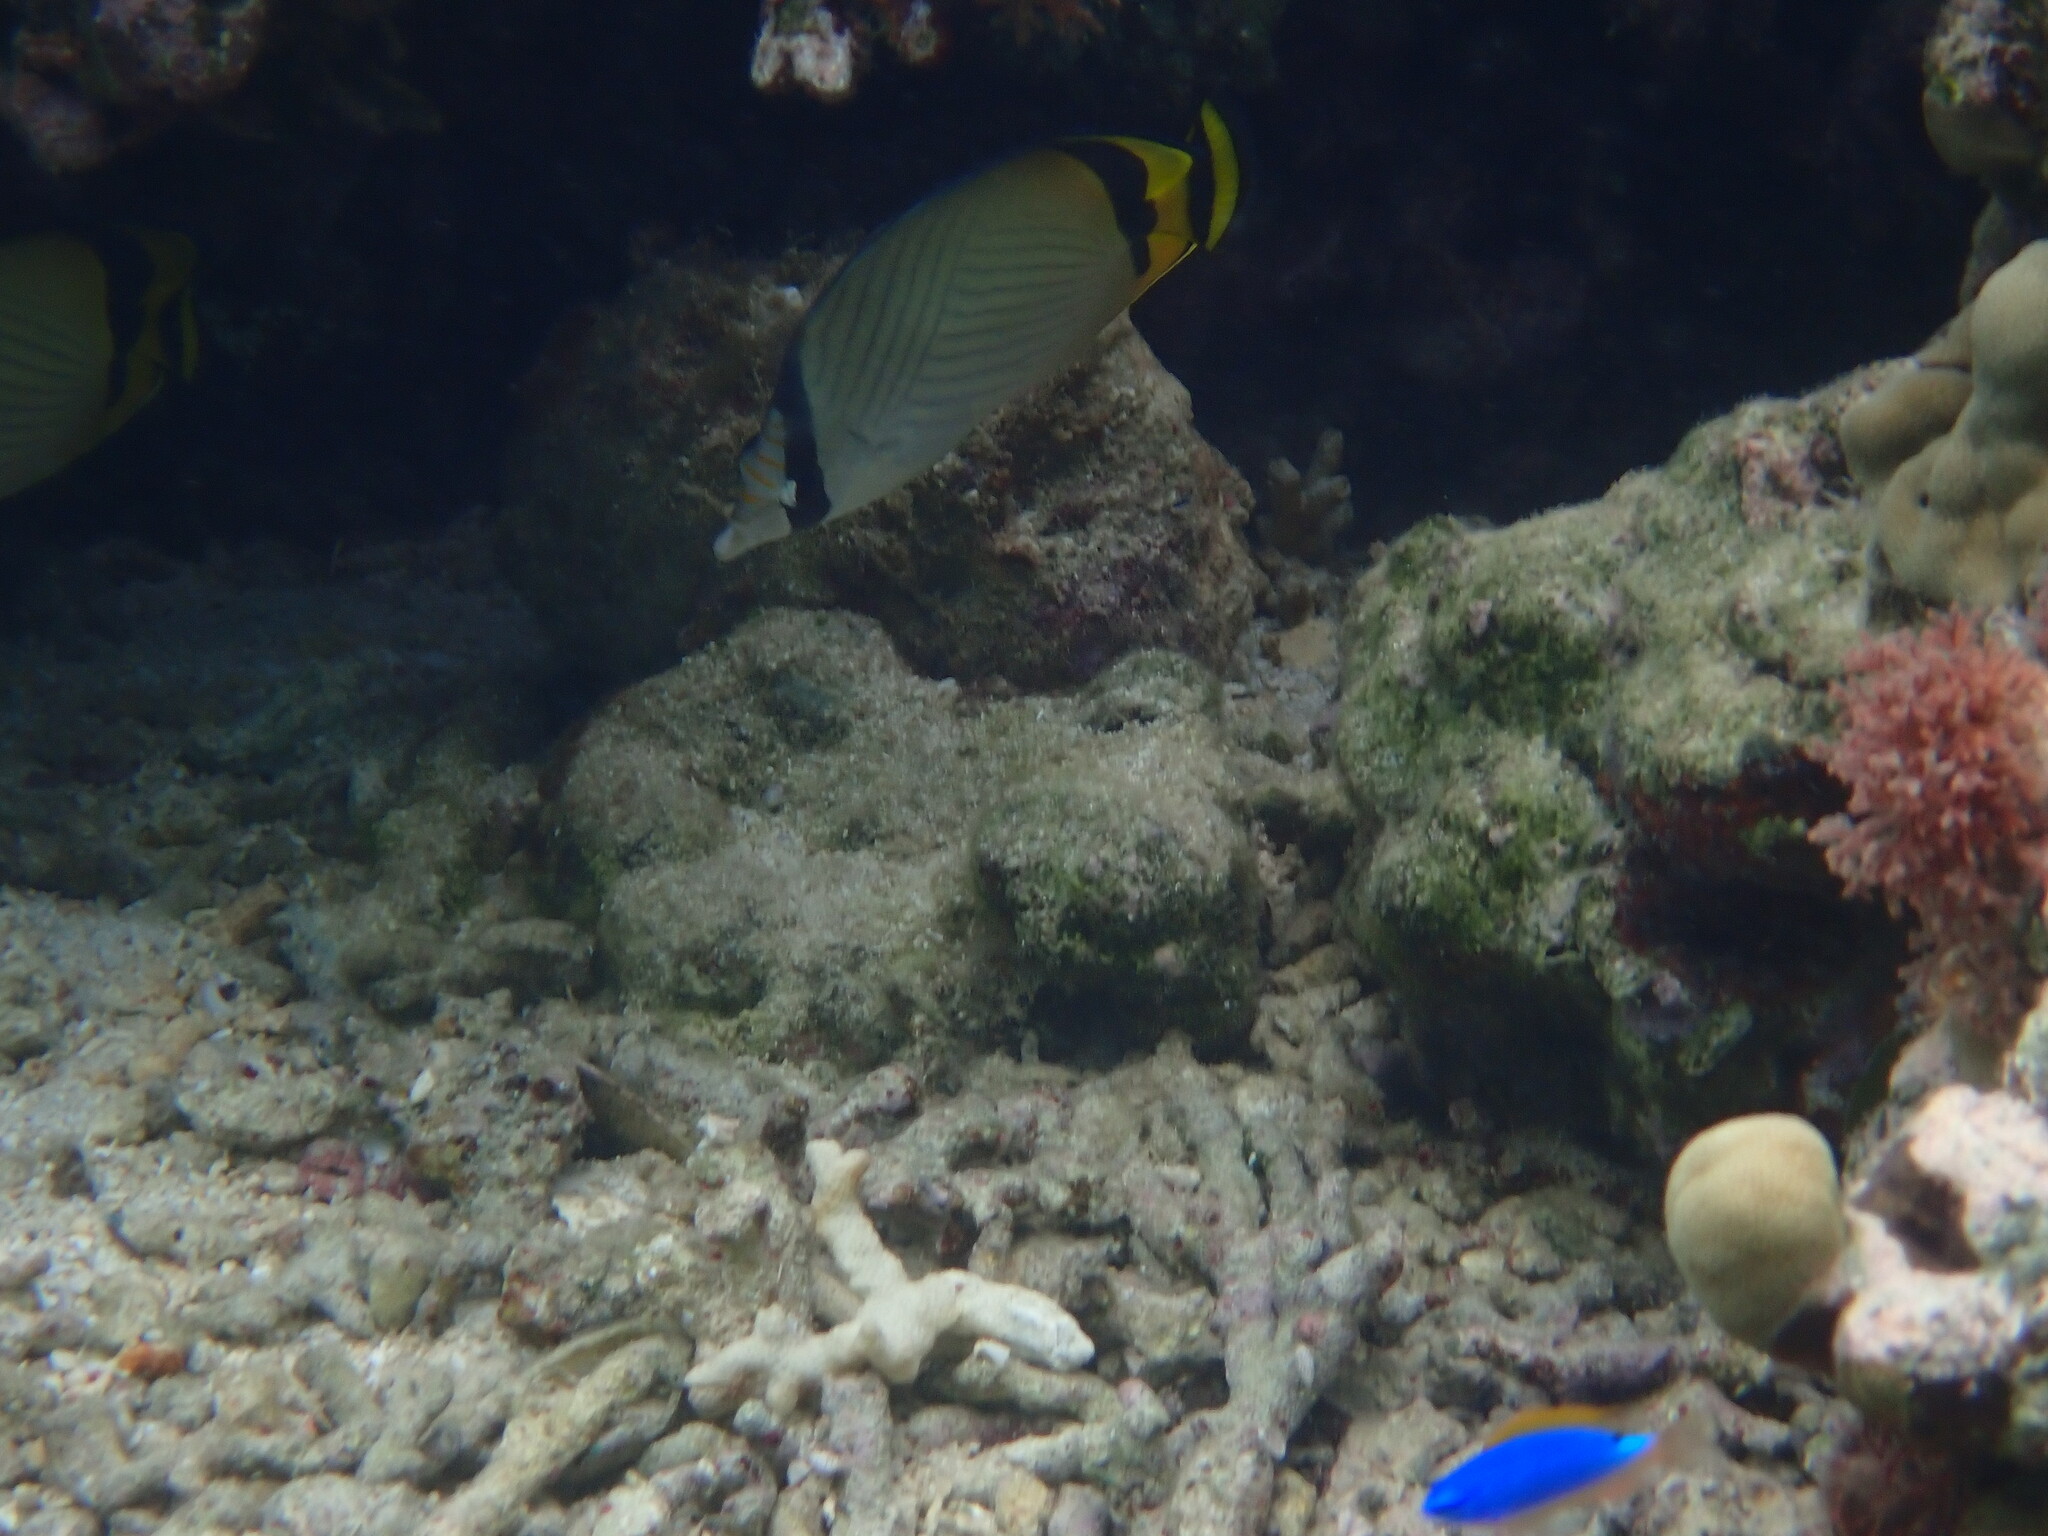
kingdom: Animalia
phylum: Chordata
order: Perciformes
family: Chaetodontidae
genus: Chaetodon
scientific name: Chaetodon vagabundus
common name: Vagabond butterflyfish
